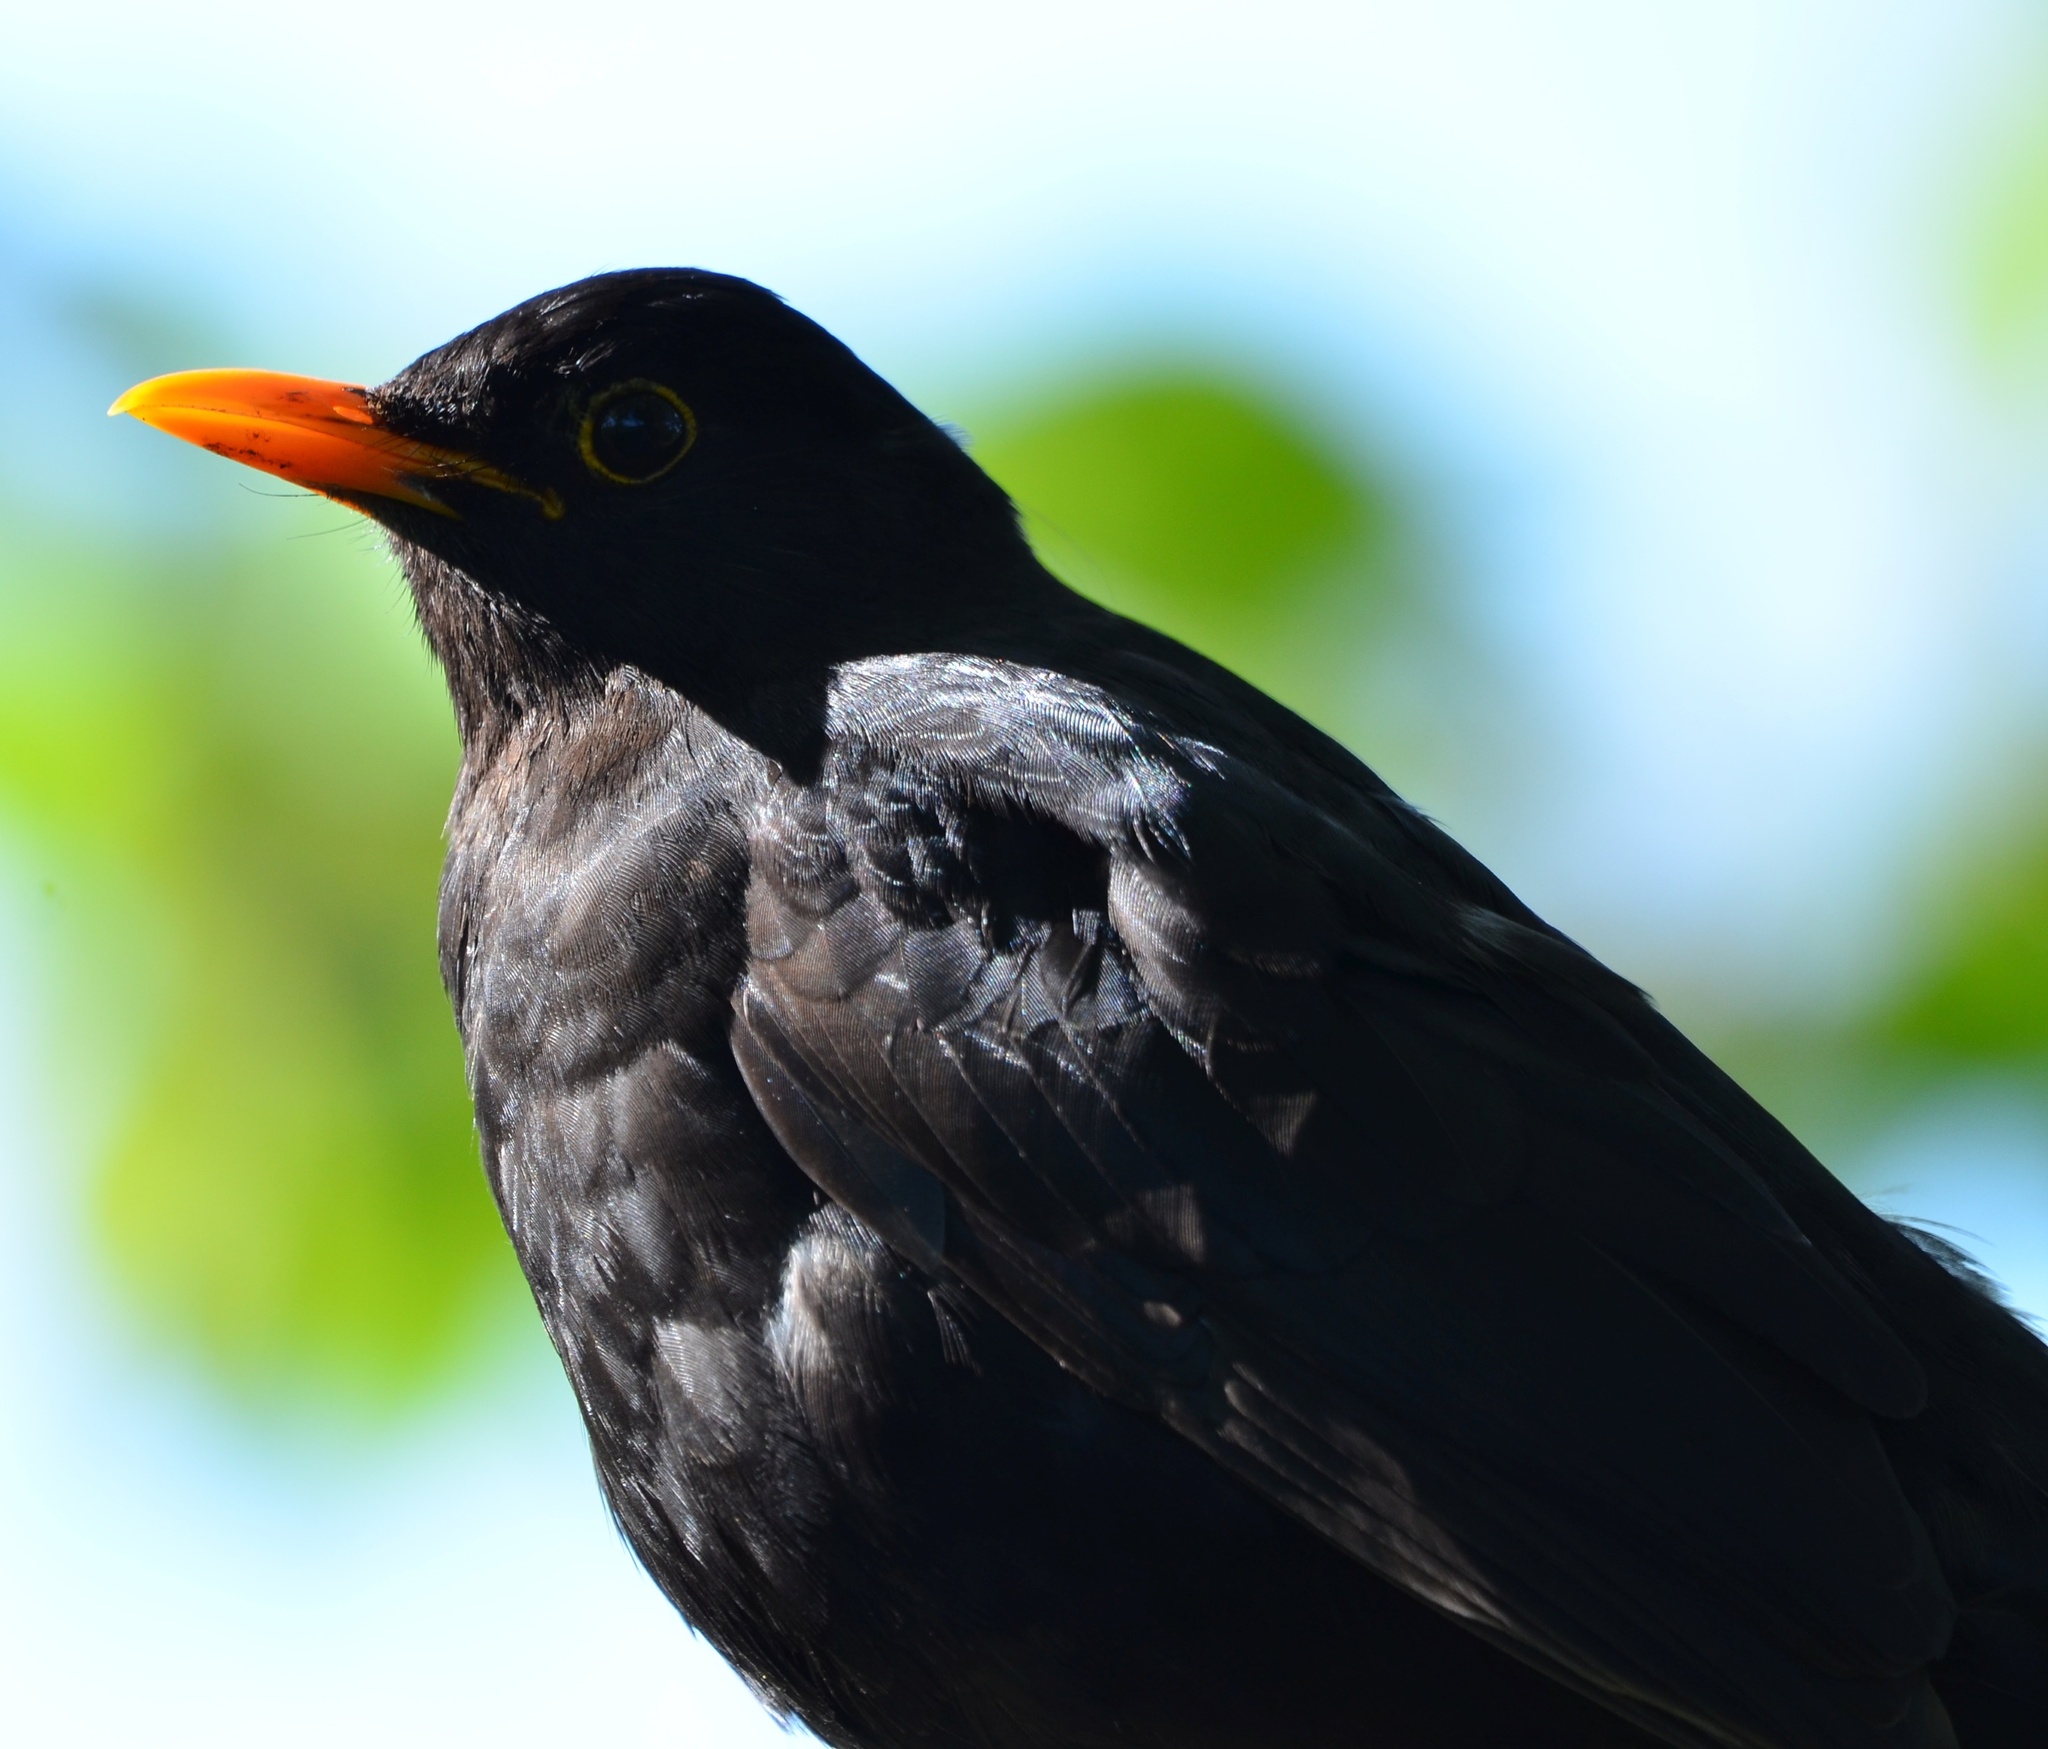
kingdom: Animalia
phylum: Chordata
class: Aves
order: Passeriformes
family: Turdidae
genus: Turdus
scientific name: Turdus merula
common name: Common blackbird
